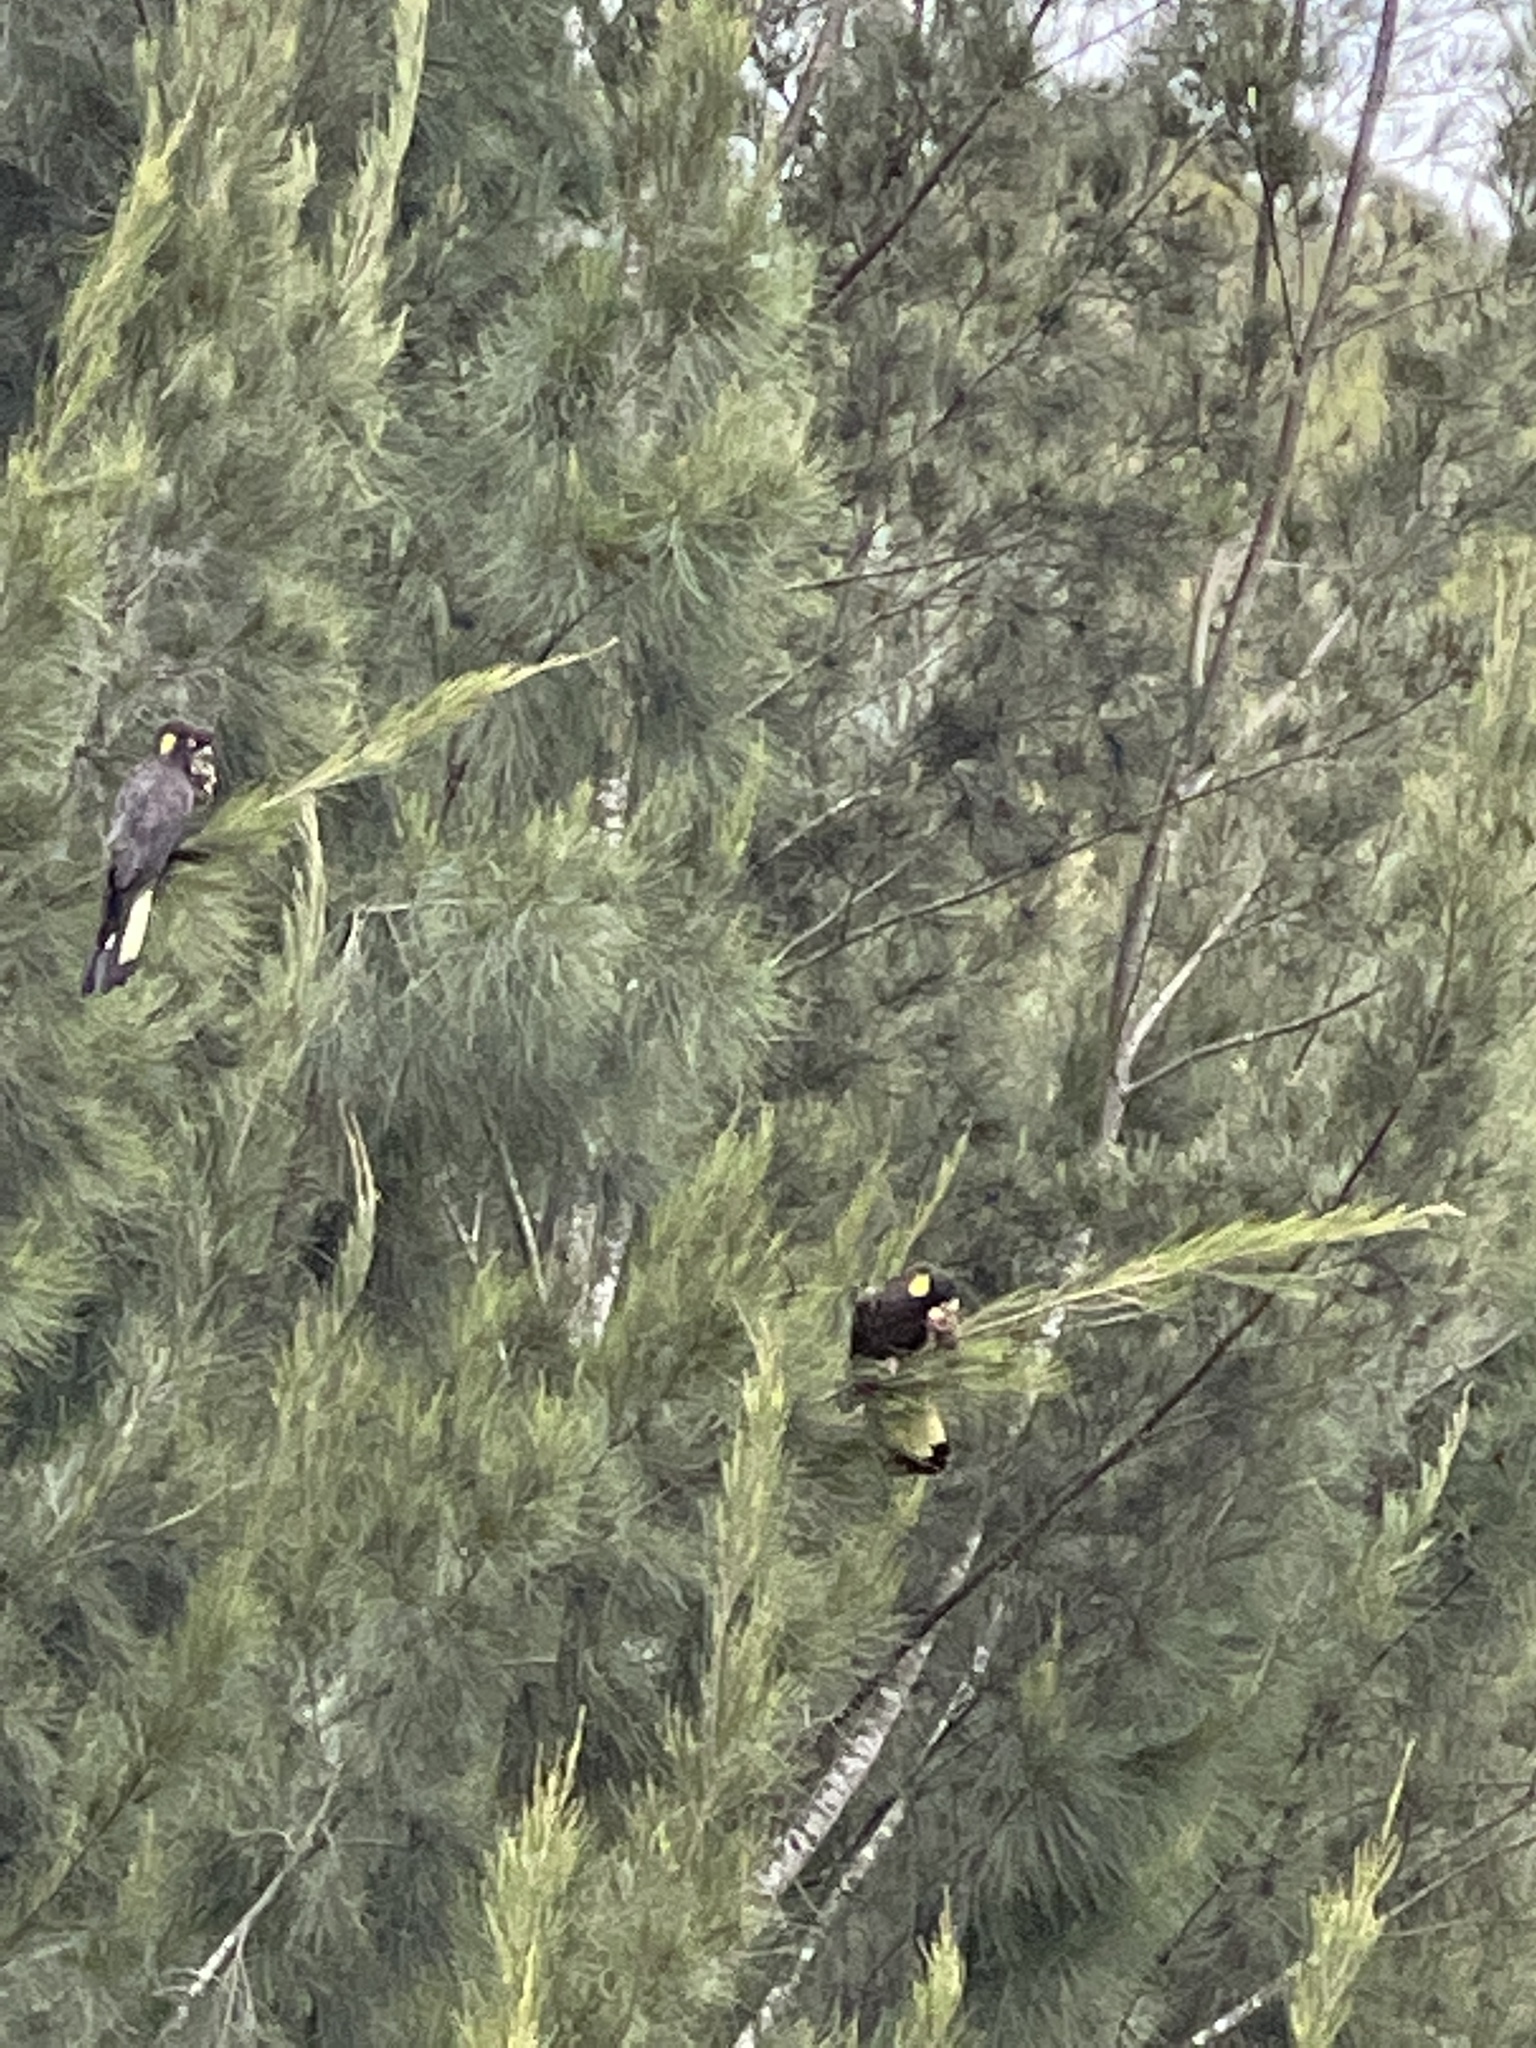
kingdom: Animalia
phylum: Chordata
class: Aves
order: Psittaciformes
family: Cacatuidae
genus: Zanda
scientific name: Zanda funerea
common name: Yellow-tailed black-cockatoo
